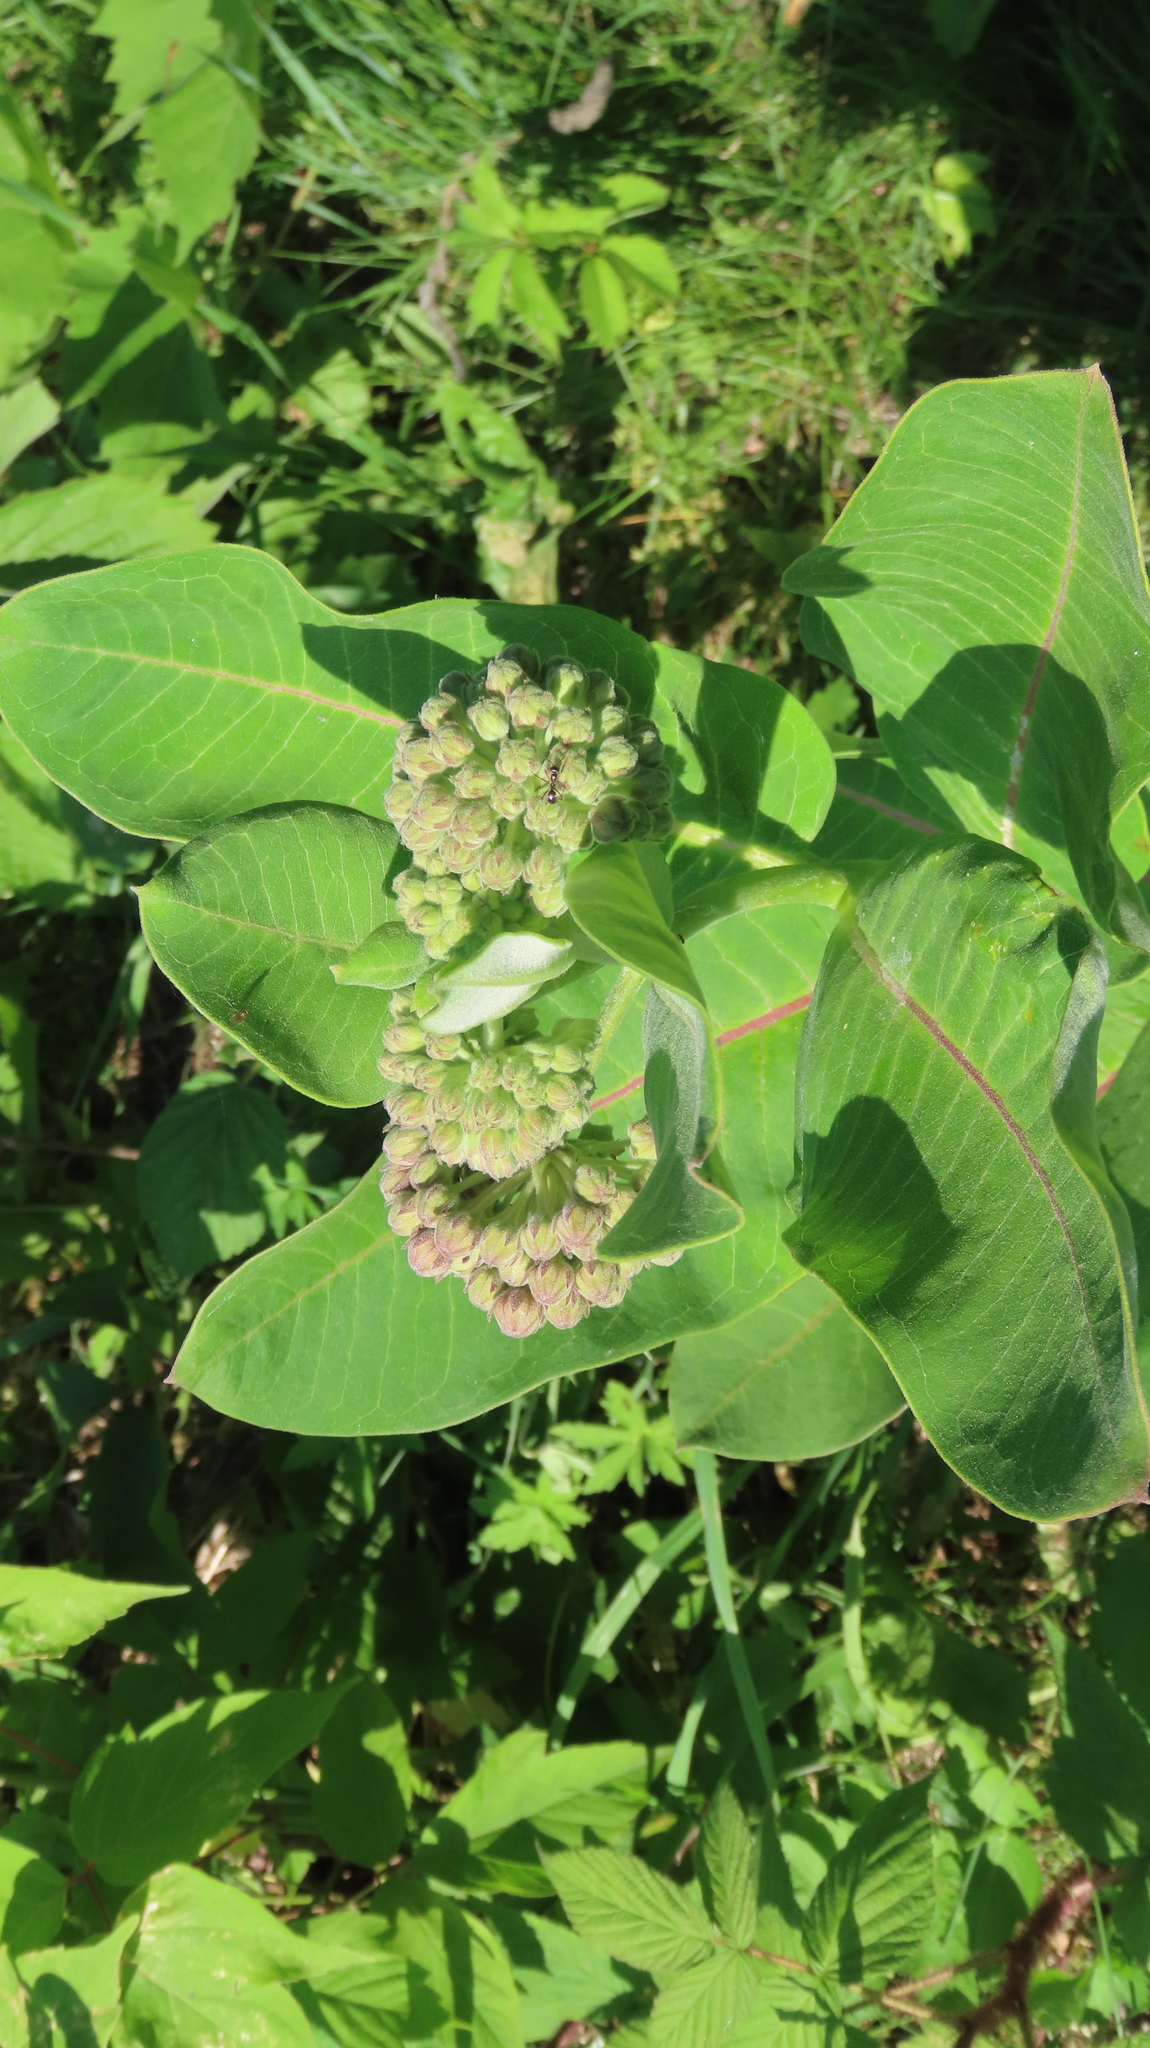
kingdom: Plantae
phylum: Tracheophyta
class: Magnoliopsida
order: Gentianales
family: Apocynaceae
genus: Asclepias
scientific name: Asclepias syriaca
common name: Common milkweed
